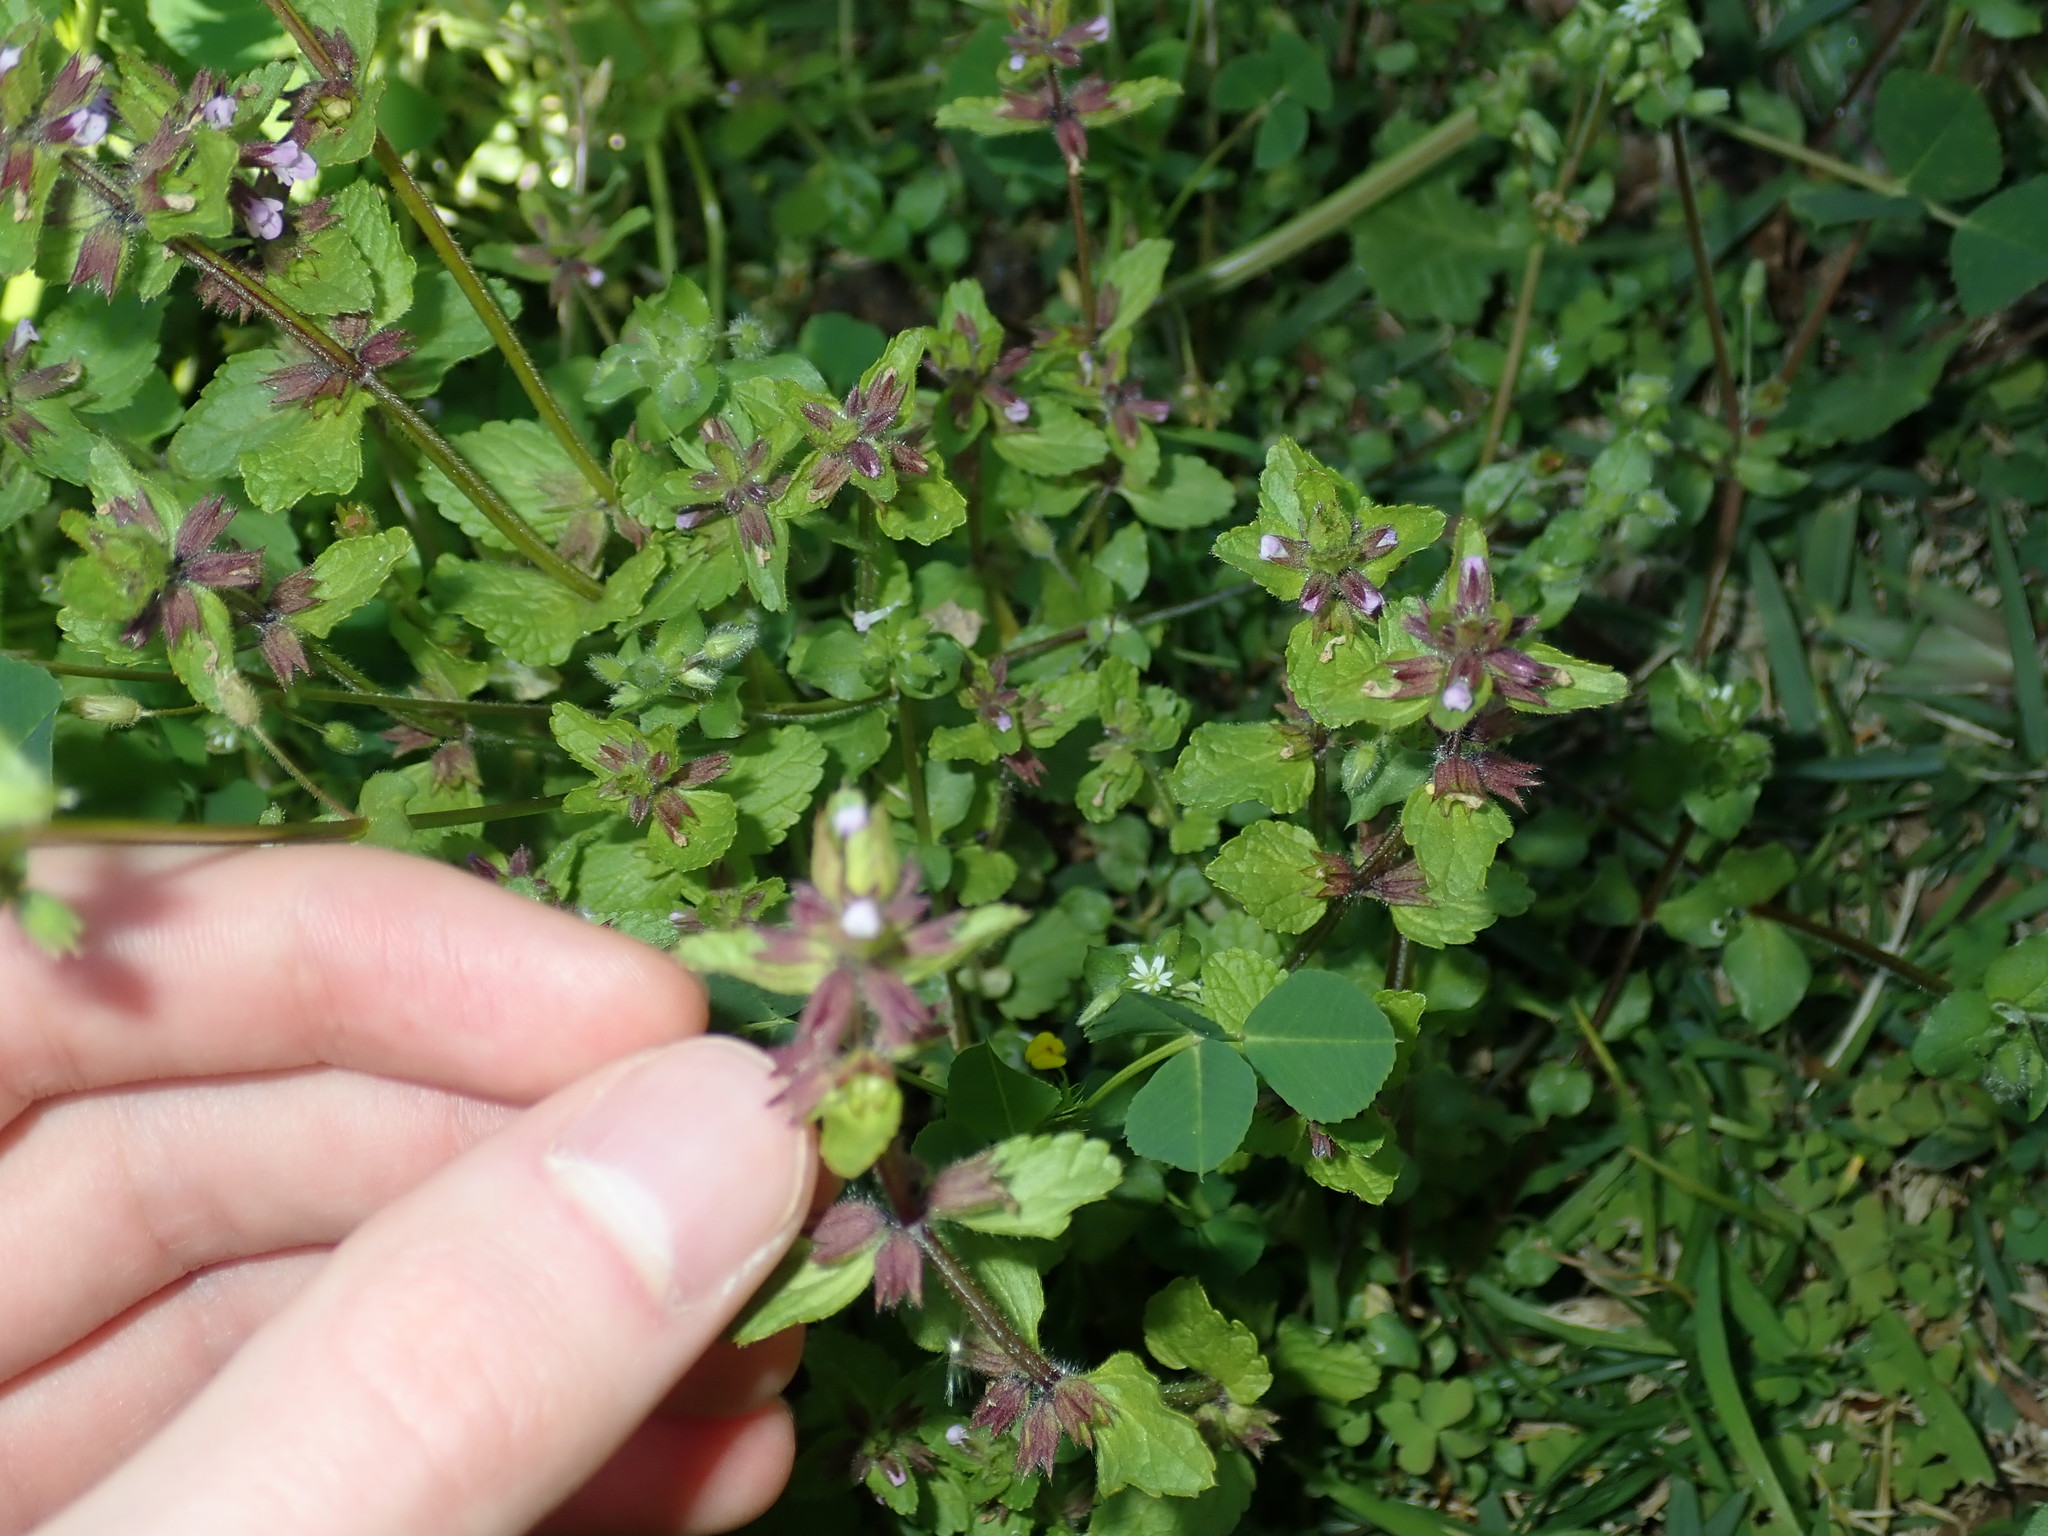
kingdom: Plantae
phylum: Tracheophyta
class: Magnoliopsida
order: Lamiales
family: Lamiaceae
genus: Stachys
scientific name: Stachys arvensis
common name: Field woundwort
